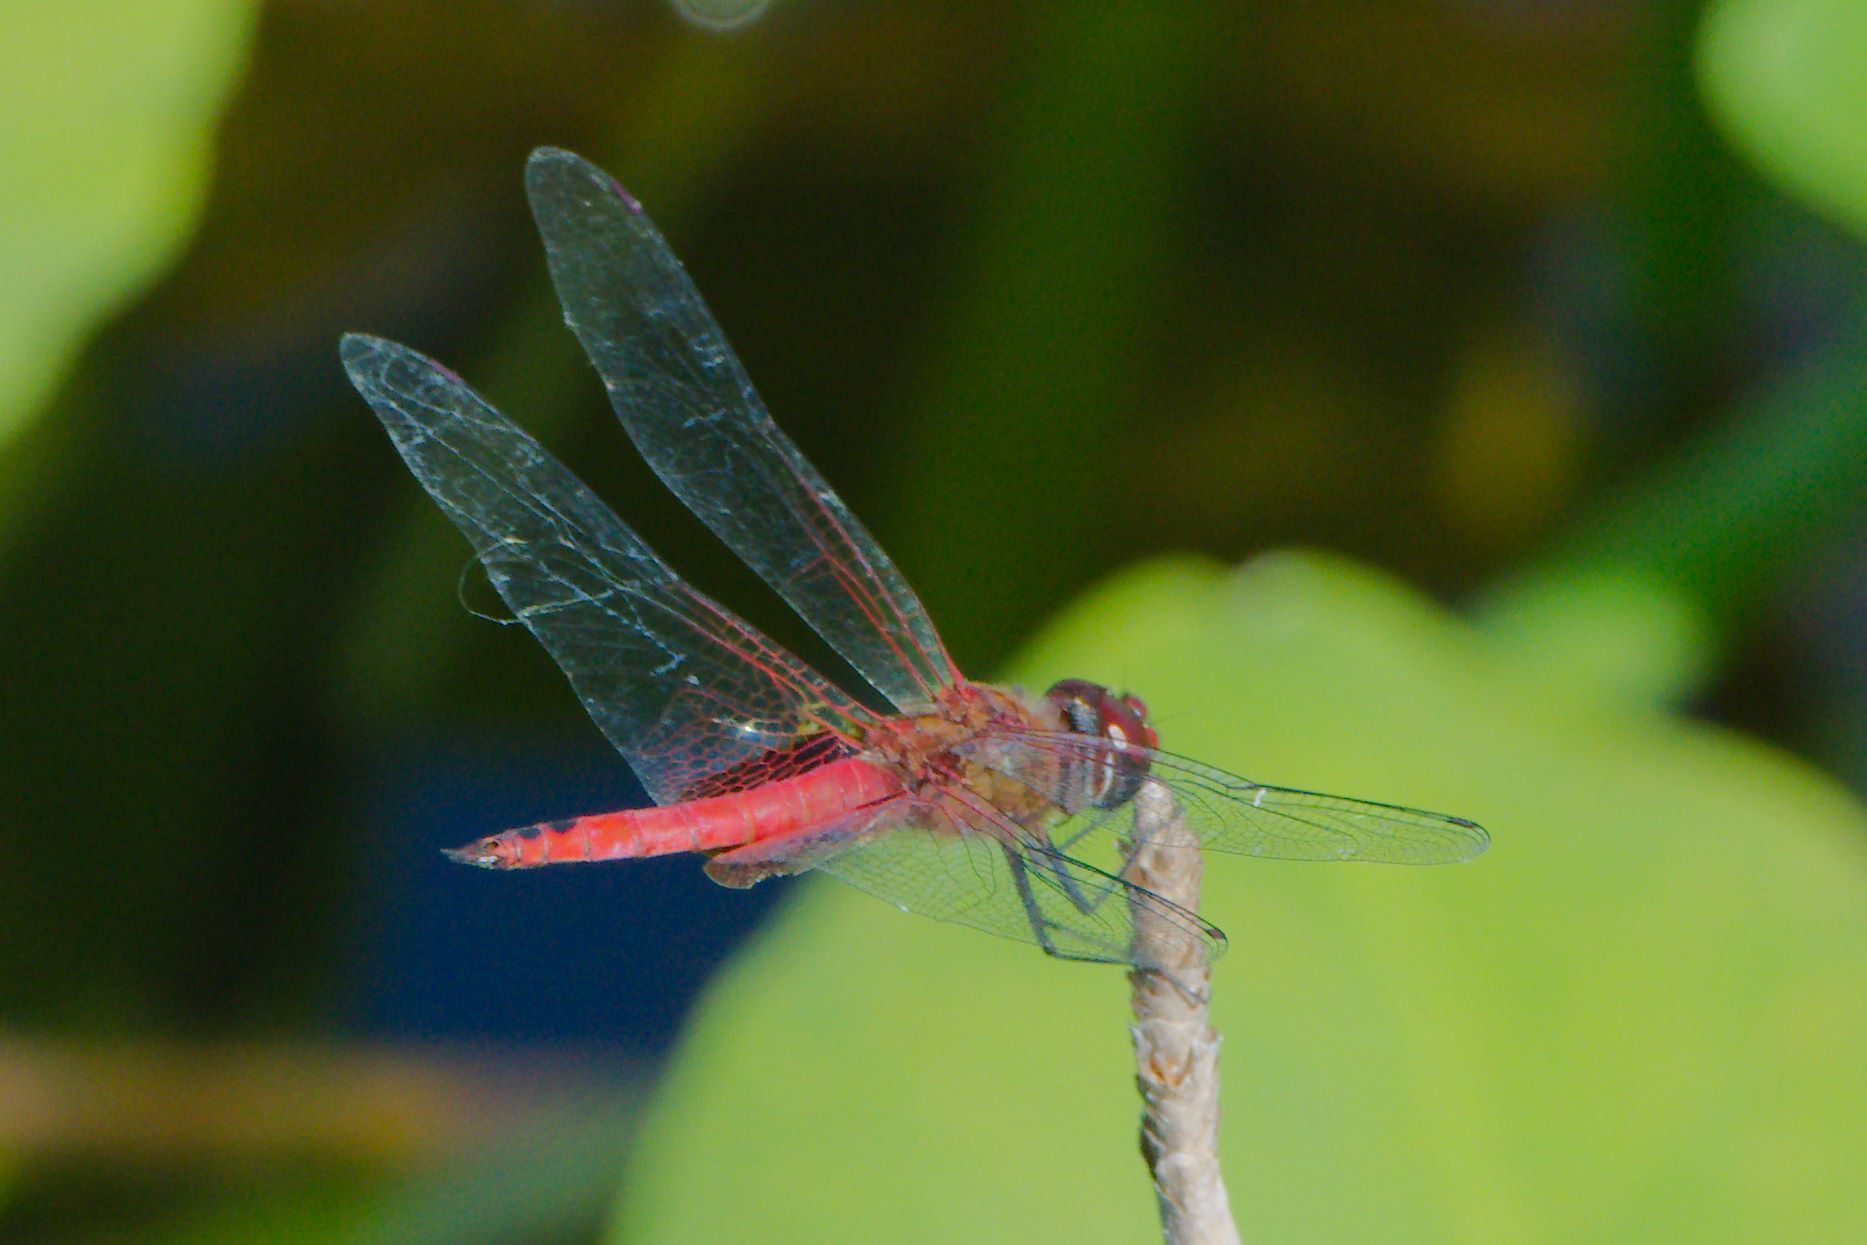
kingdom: Animalia
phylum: Arthropoda
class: Insecta
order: Odonata
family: Libellulidae
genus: Tramea
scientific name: Tramea abdominalis
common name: Vermilion saddlebags
